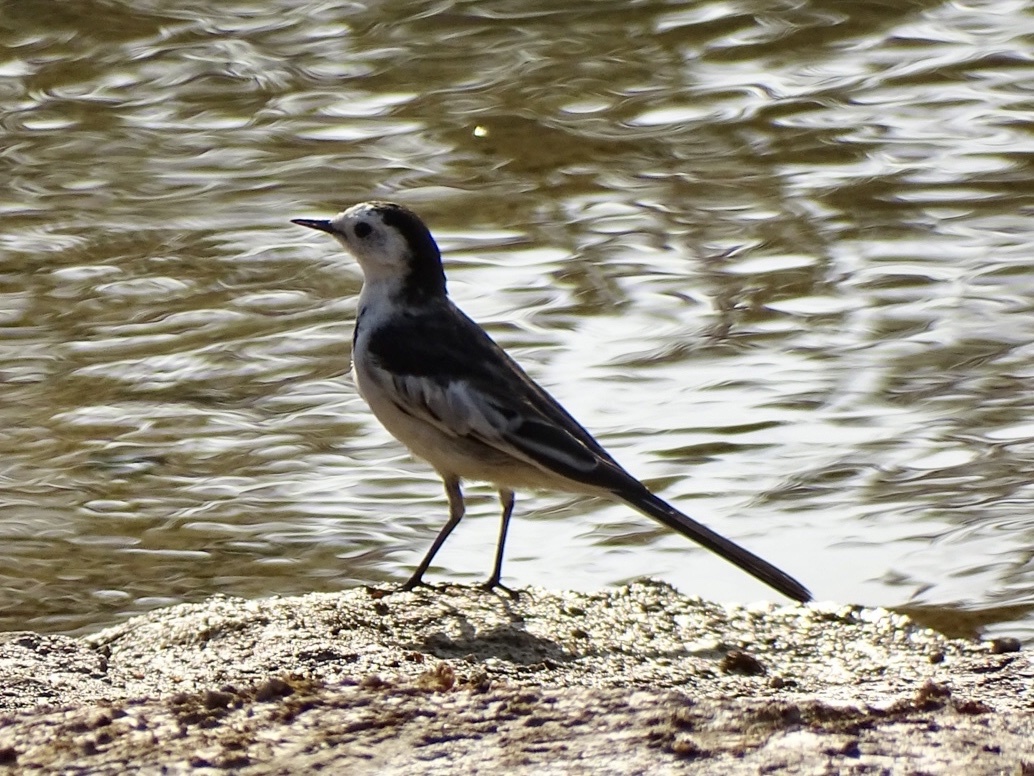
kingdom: Animalia
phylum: Chordata
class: Aves
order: Passeriformes
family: Motacillidae
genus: Motacilla
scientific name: Motacilla alba
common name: White wagtail
